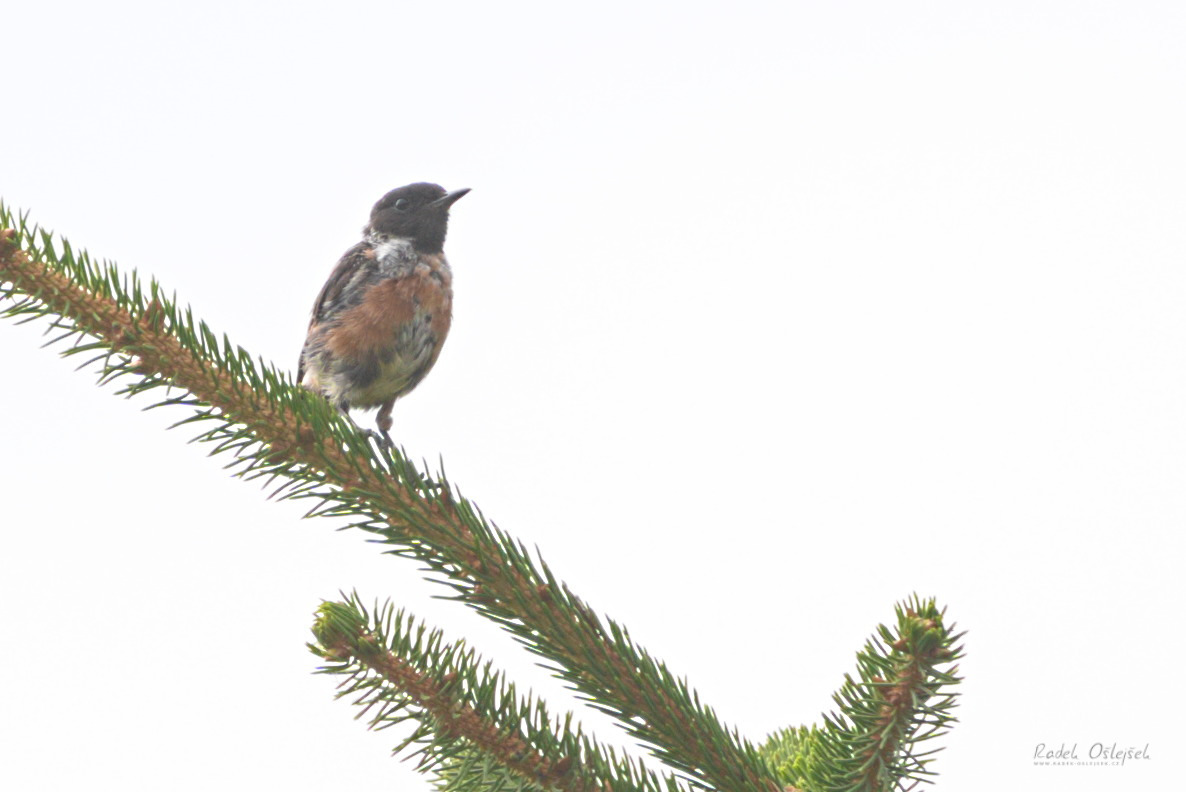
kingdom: Animalia
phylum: Chordata
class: Aves
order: Passeriformes
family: Muscicapidae
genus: Saxicola
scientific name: Saxicola rubicola
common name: European stonechat
